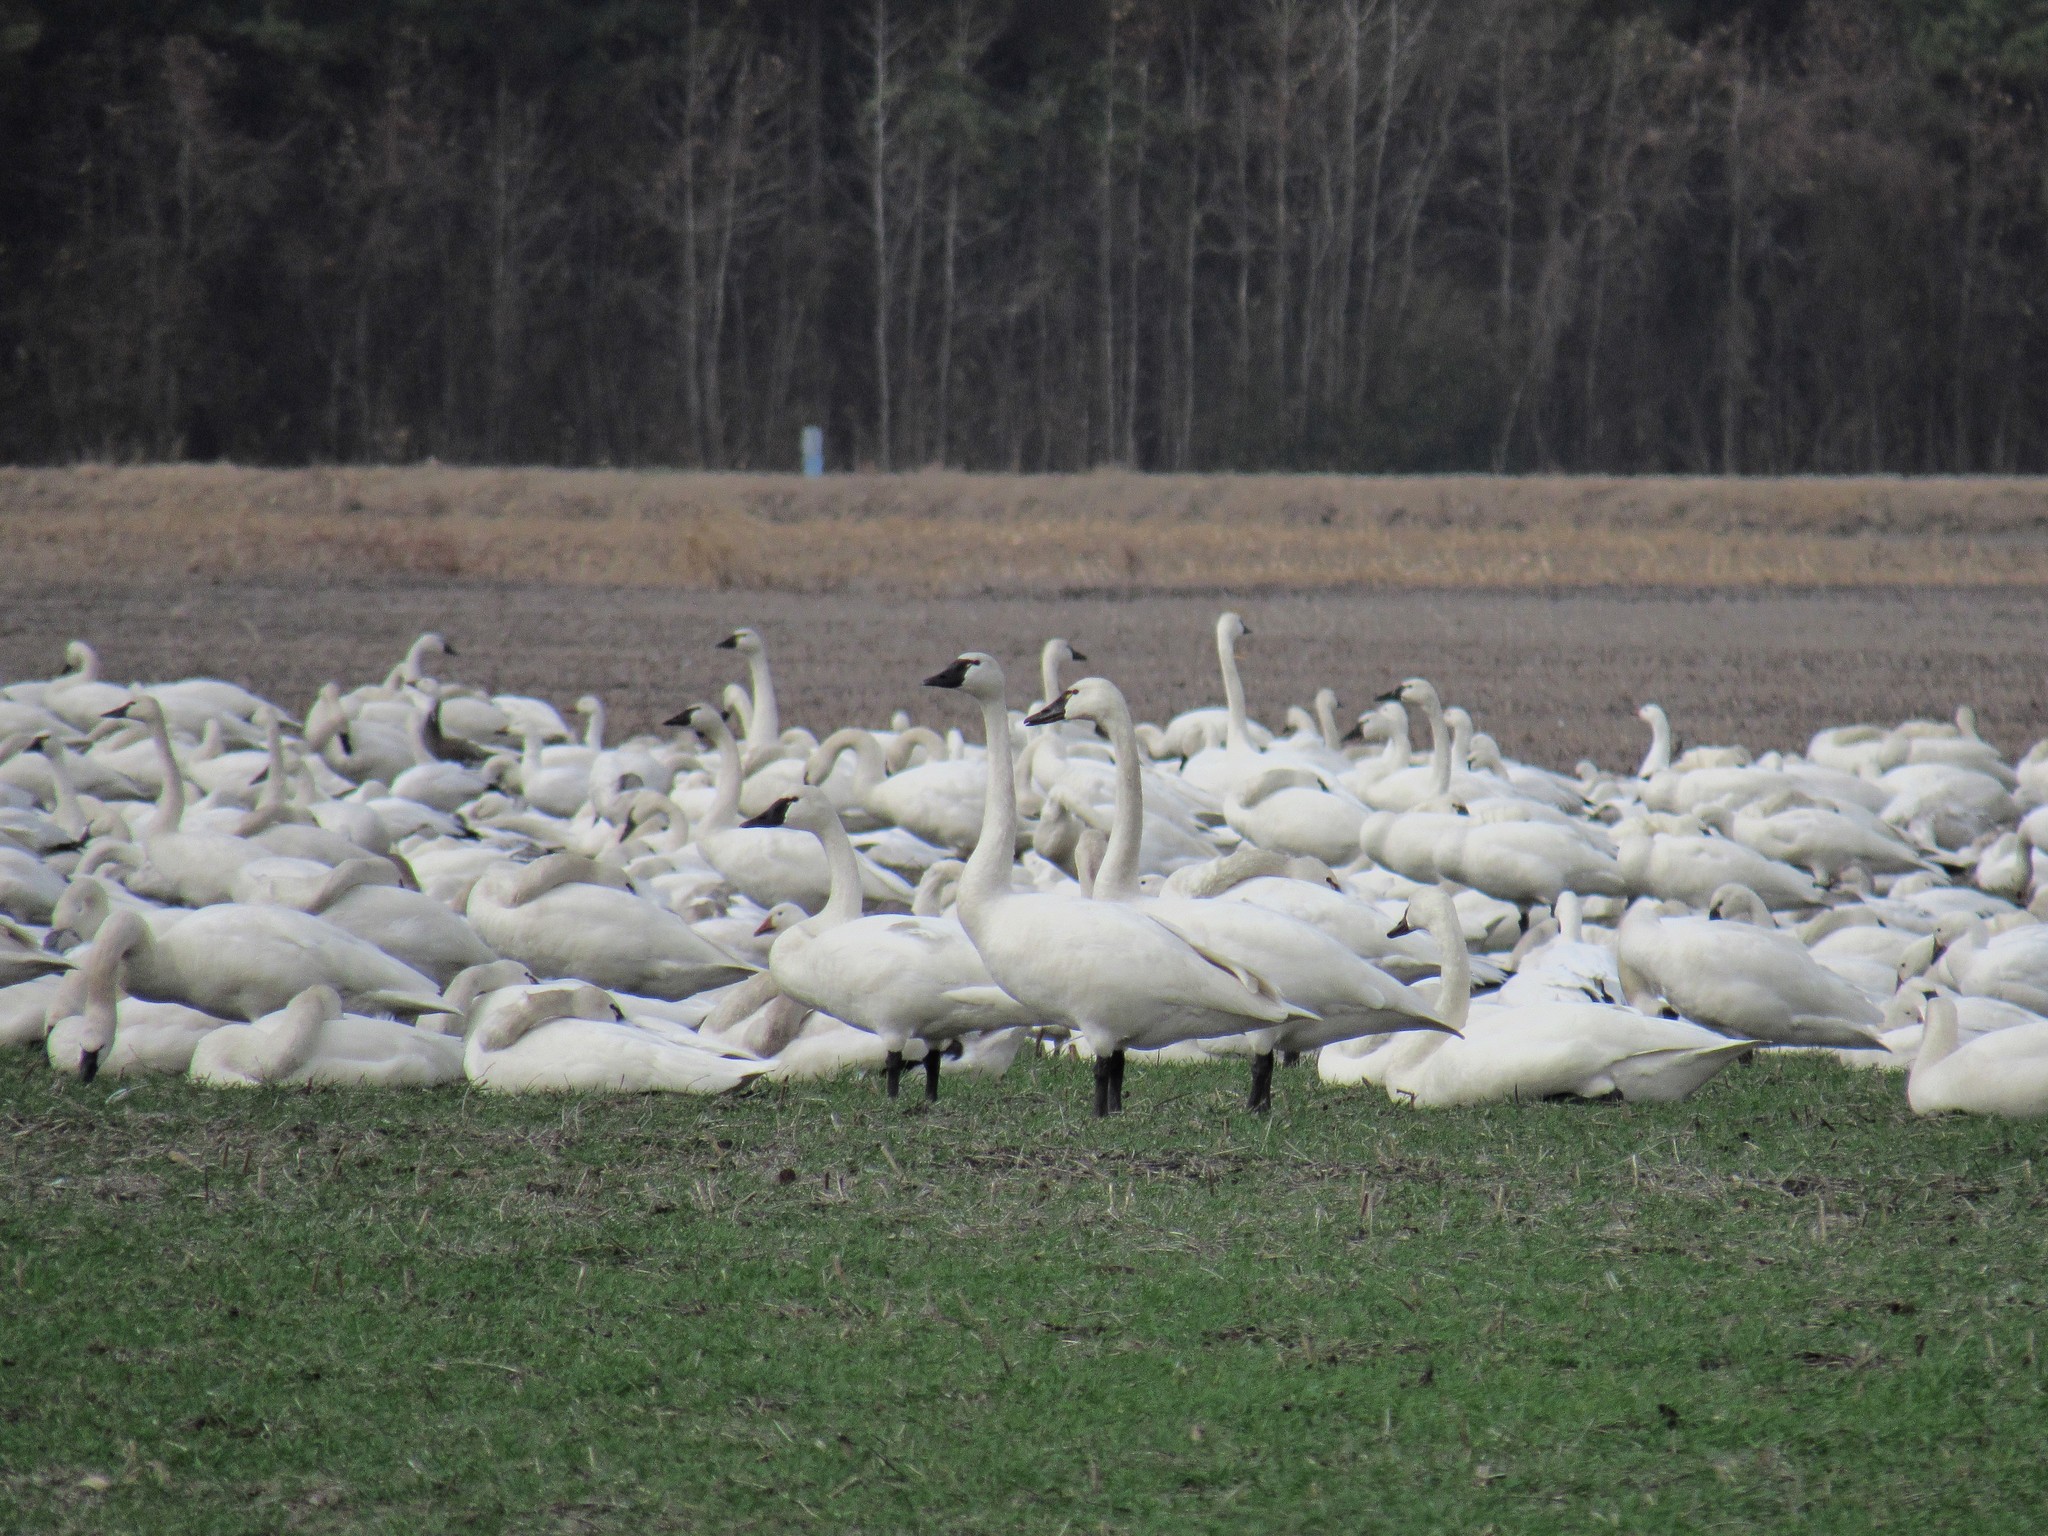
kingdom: Animalia
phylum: Chordata
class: Aves
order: Anseriformes
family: Anatidae
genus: Cygnus
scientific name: Cygnus columbianus
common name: Tundra swan
